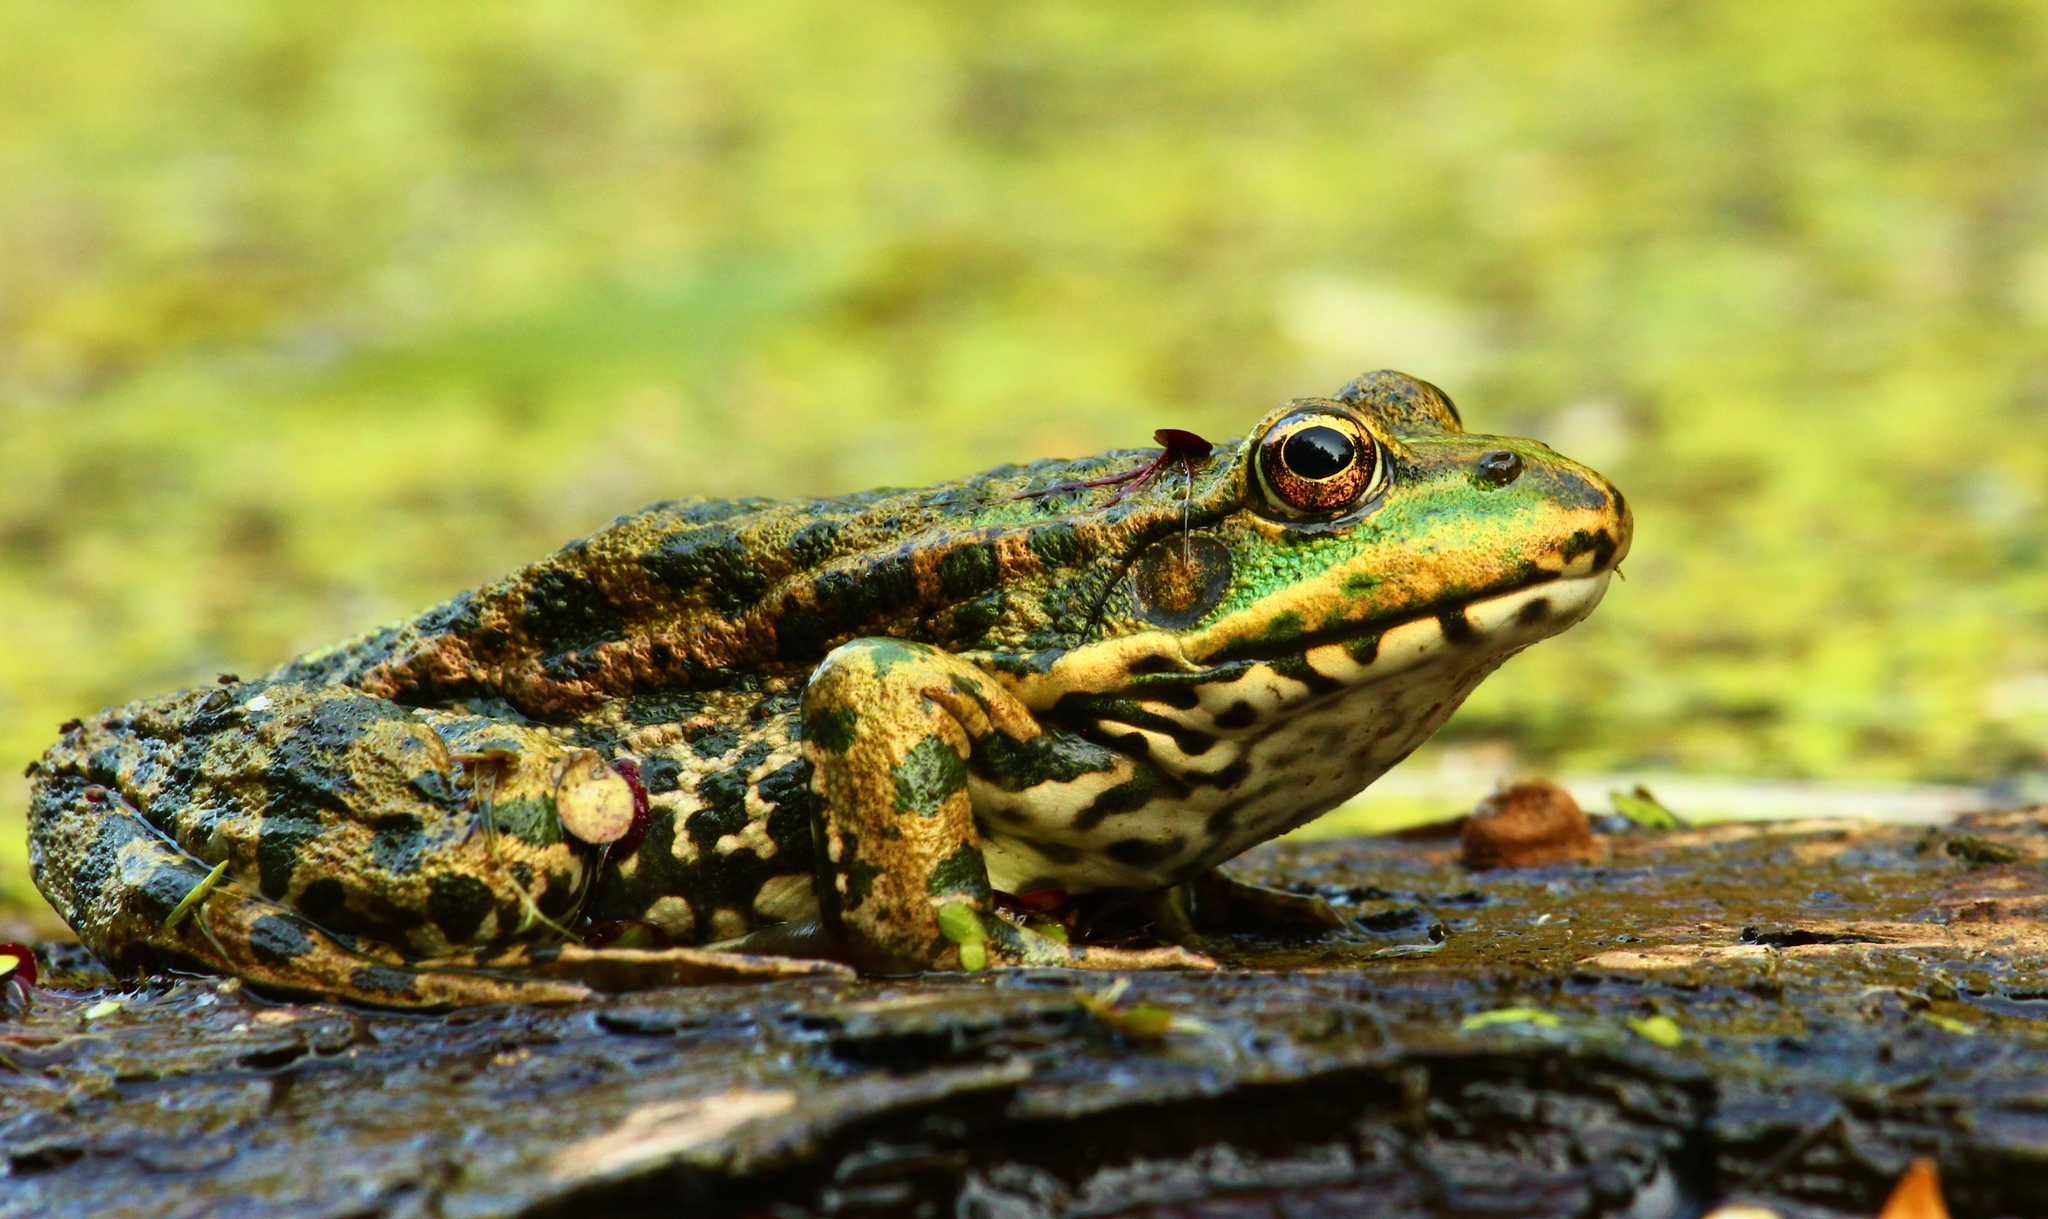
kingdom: Animalia
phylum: Chordata
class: Amphibia
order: Anura
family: Ranidae
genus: Pelophylax
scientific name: Pelophylax ridibundus
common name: Marsh frog
